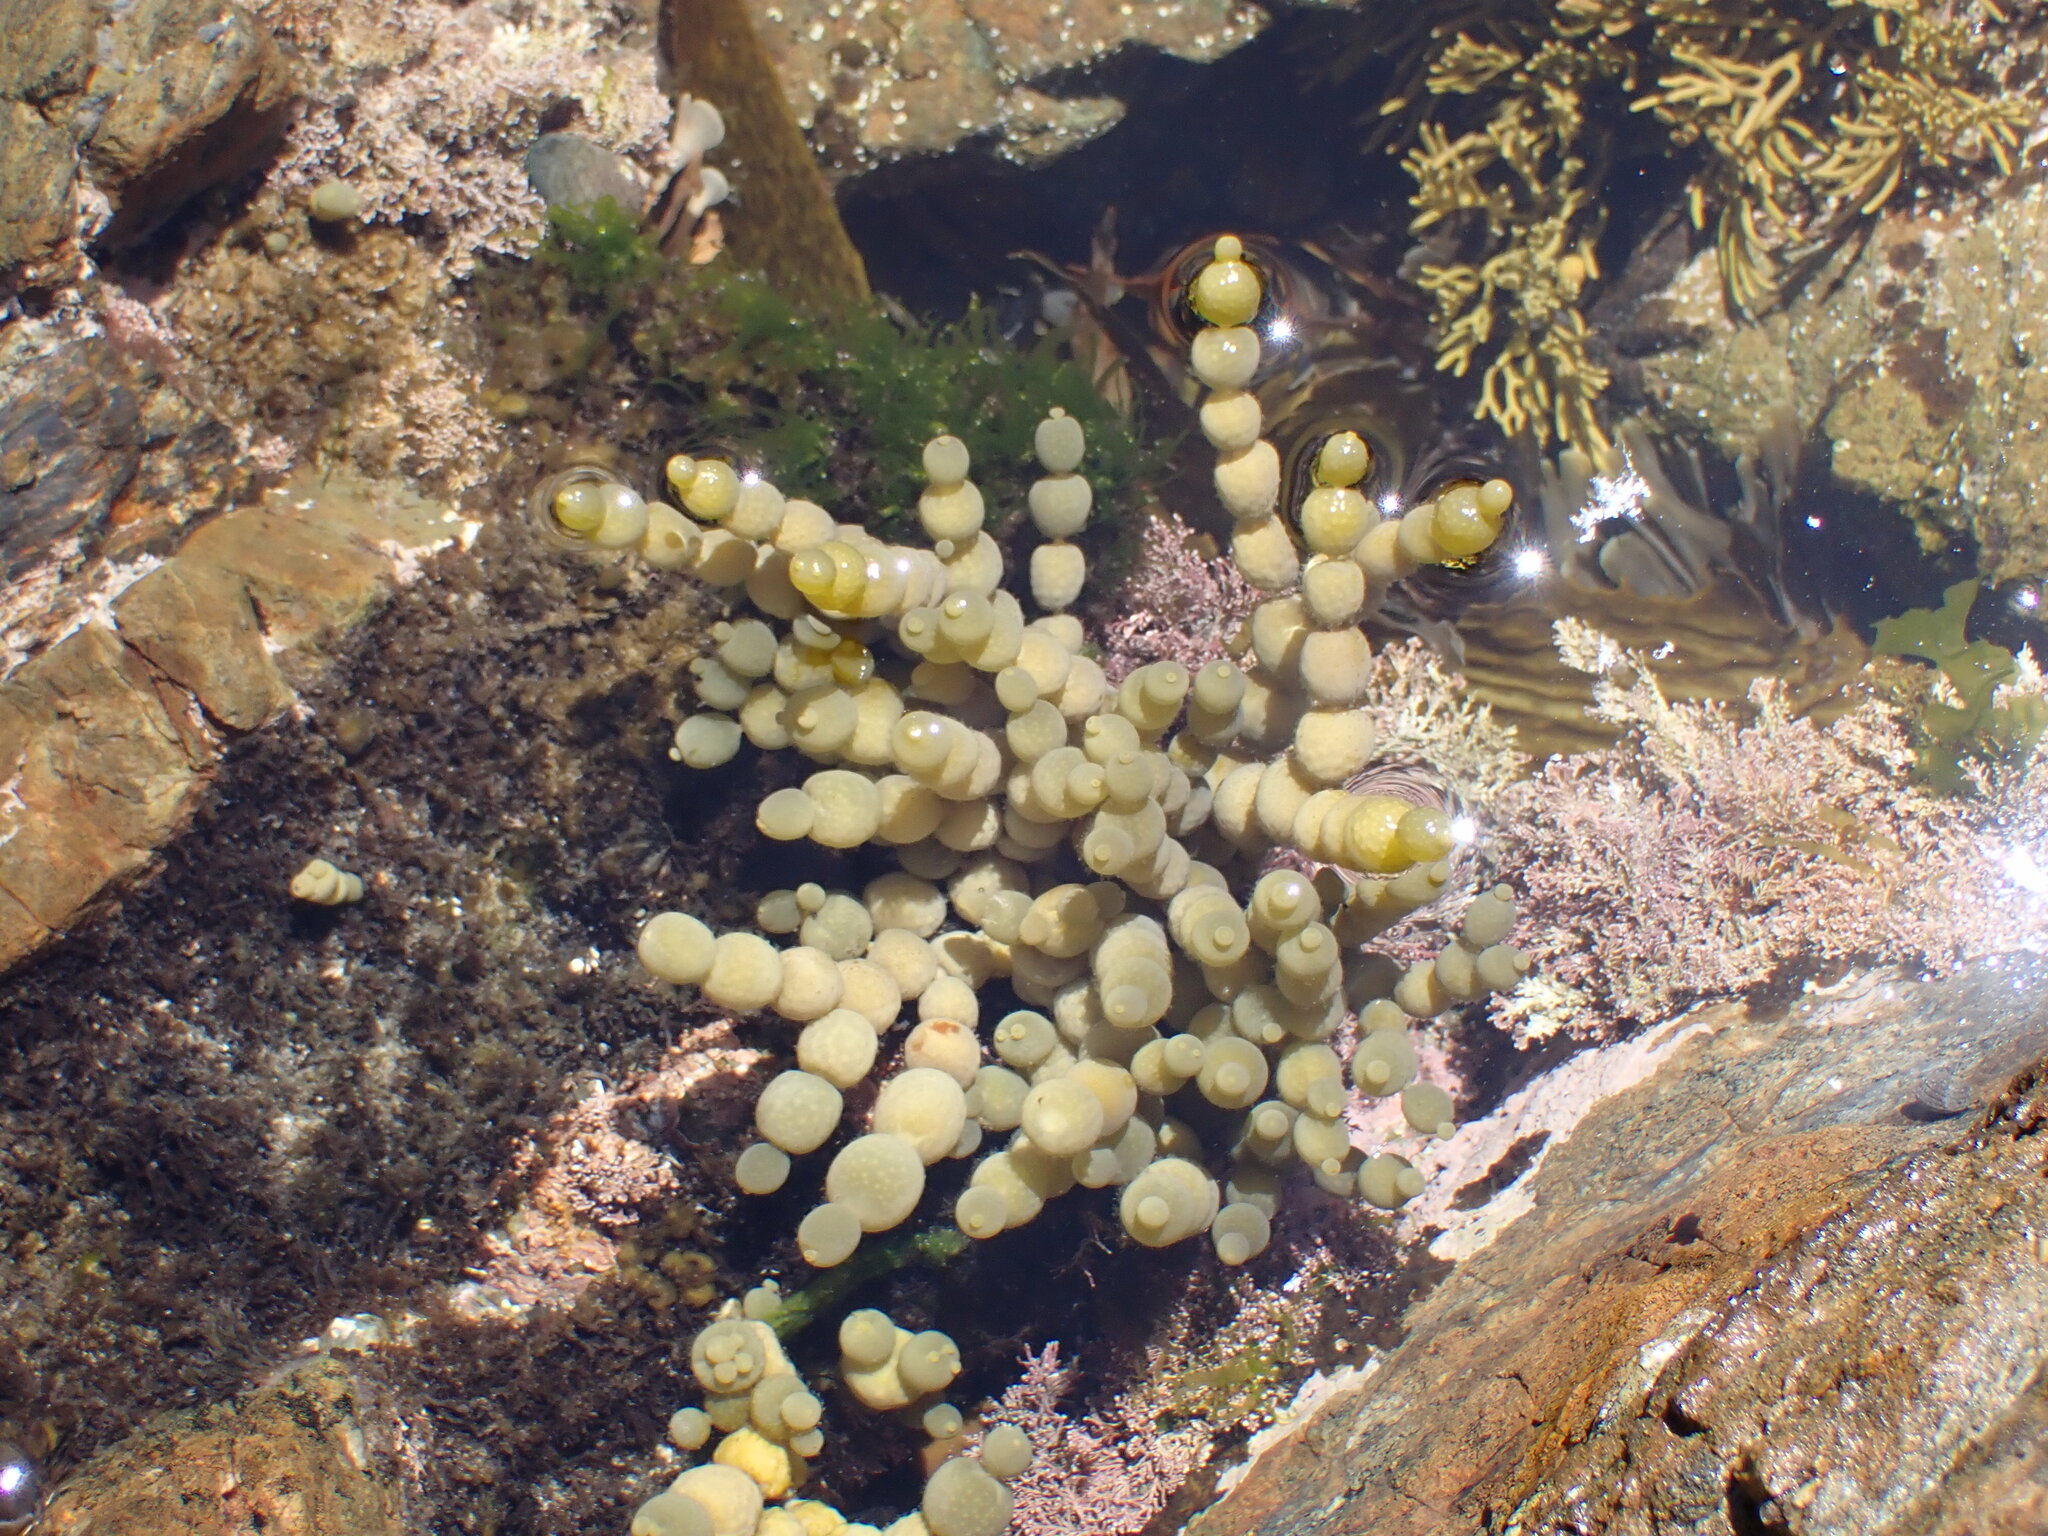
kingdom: Chromista
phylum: Ochrophyta
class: Phaeophyceae
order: Fucales
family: Hormosiraceae
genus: Hormosira
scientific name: Hormosira banksii
